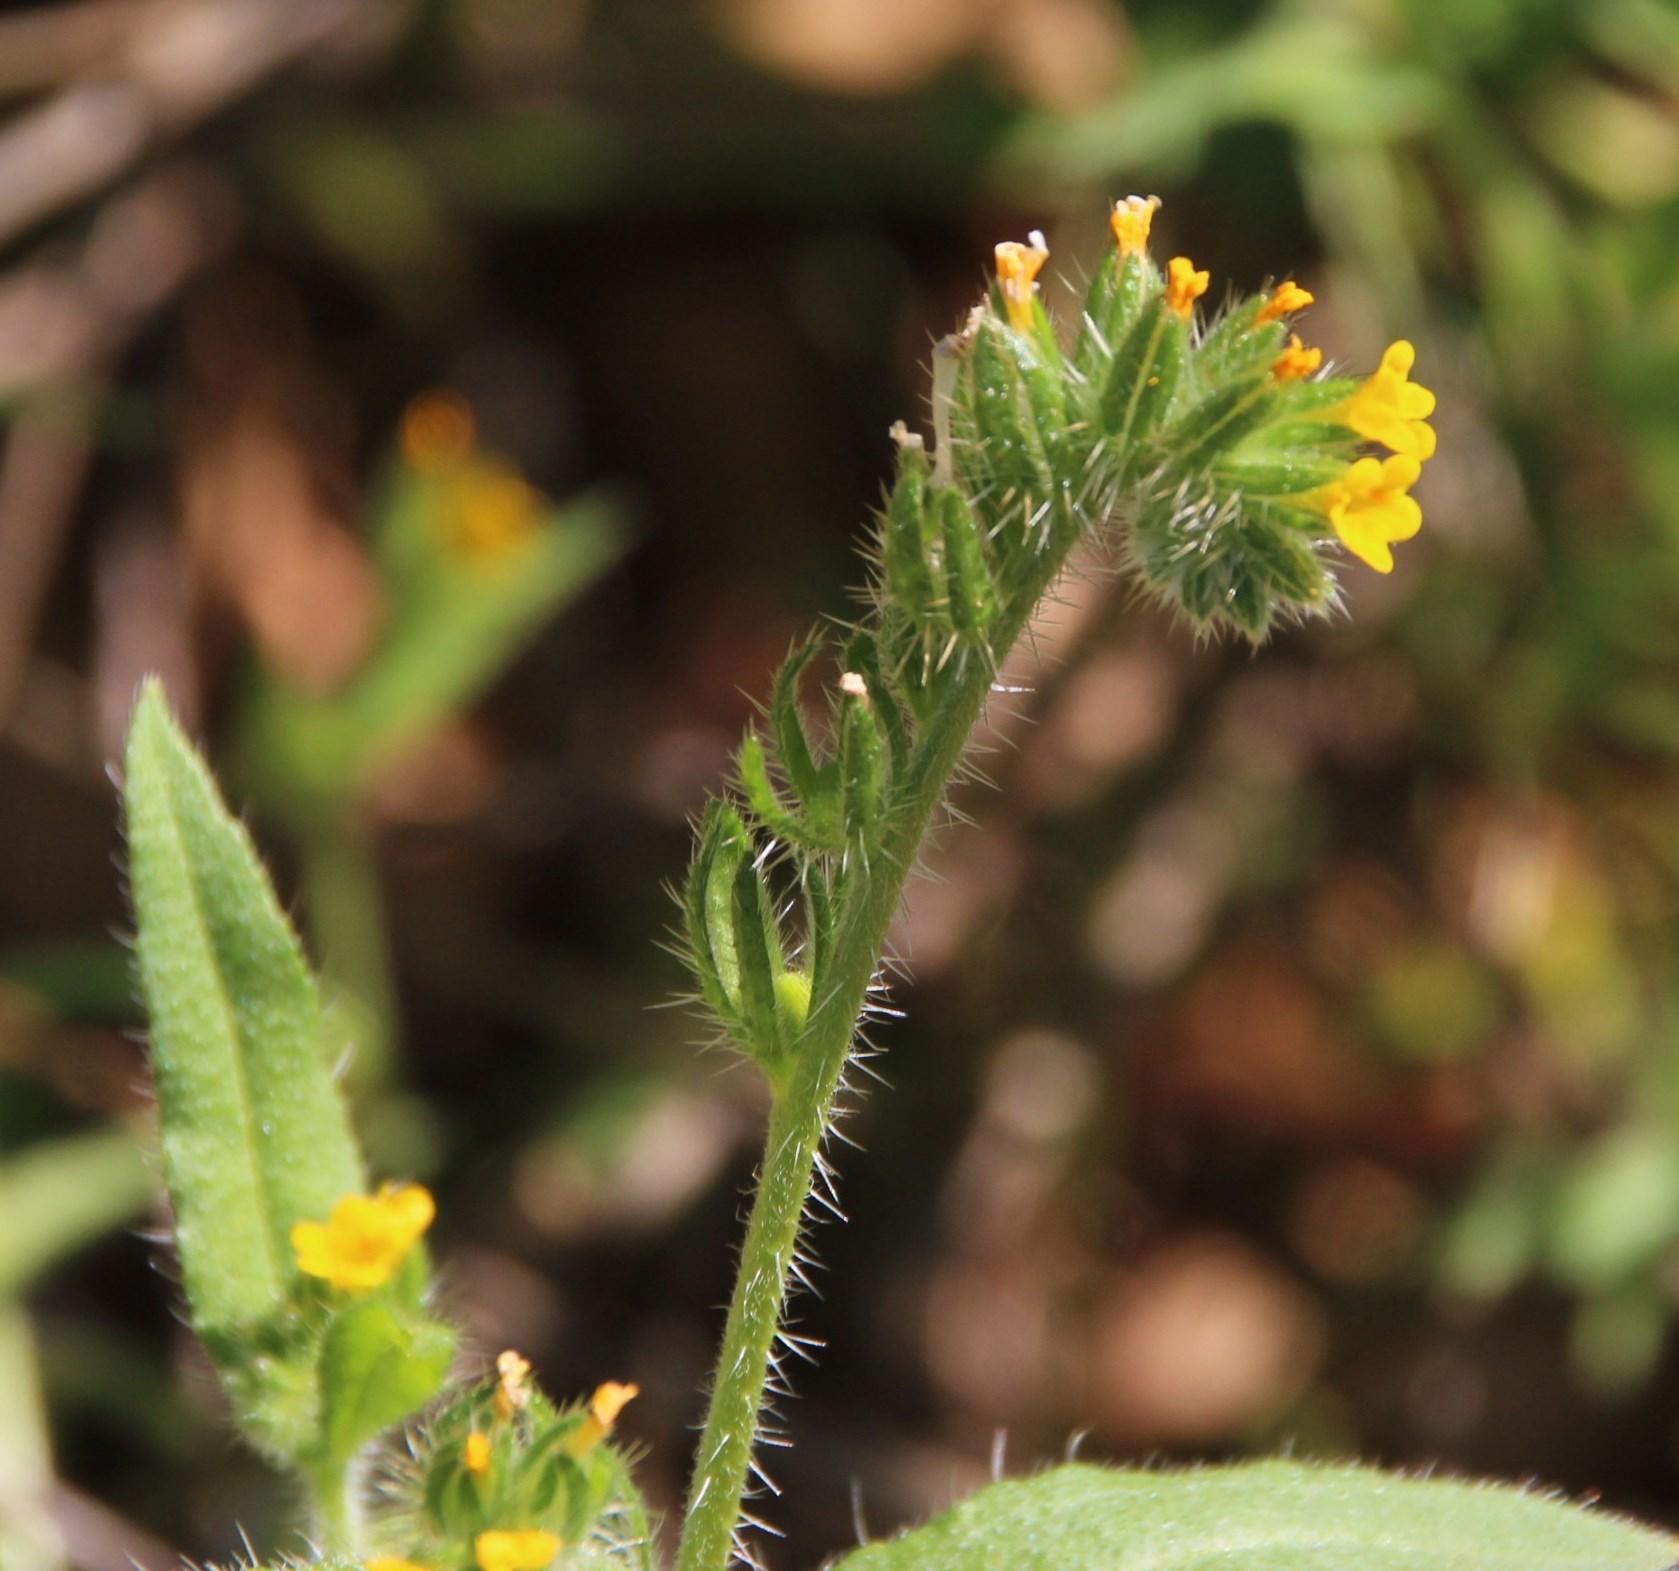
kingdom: Plantae
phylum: Tracheophyta
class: Magnoliopsida
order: Boraginales
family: Boraginaceae
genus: Amsinckia
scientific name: Amsinckia menziesii
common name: Menzies' fiddleneck
